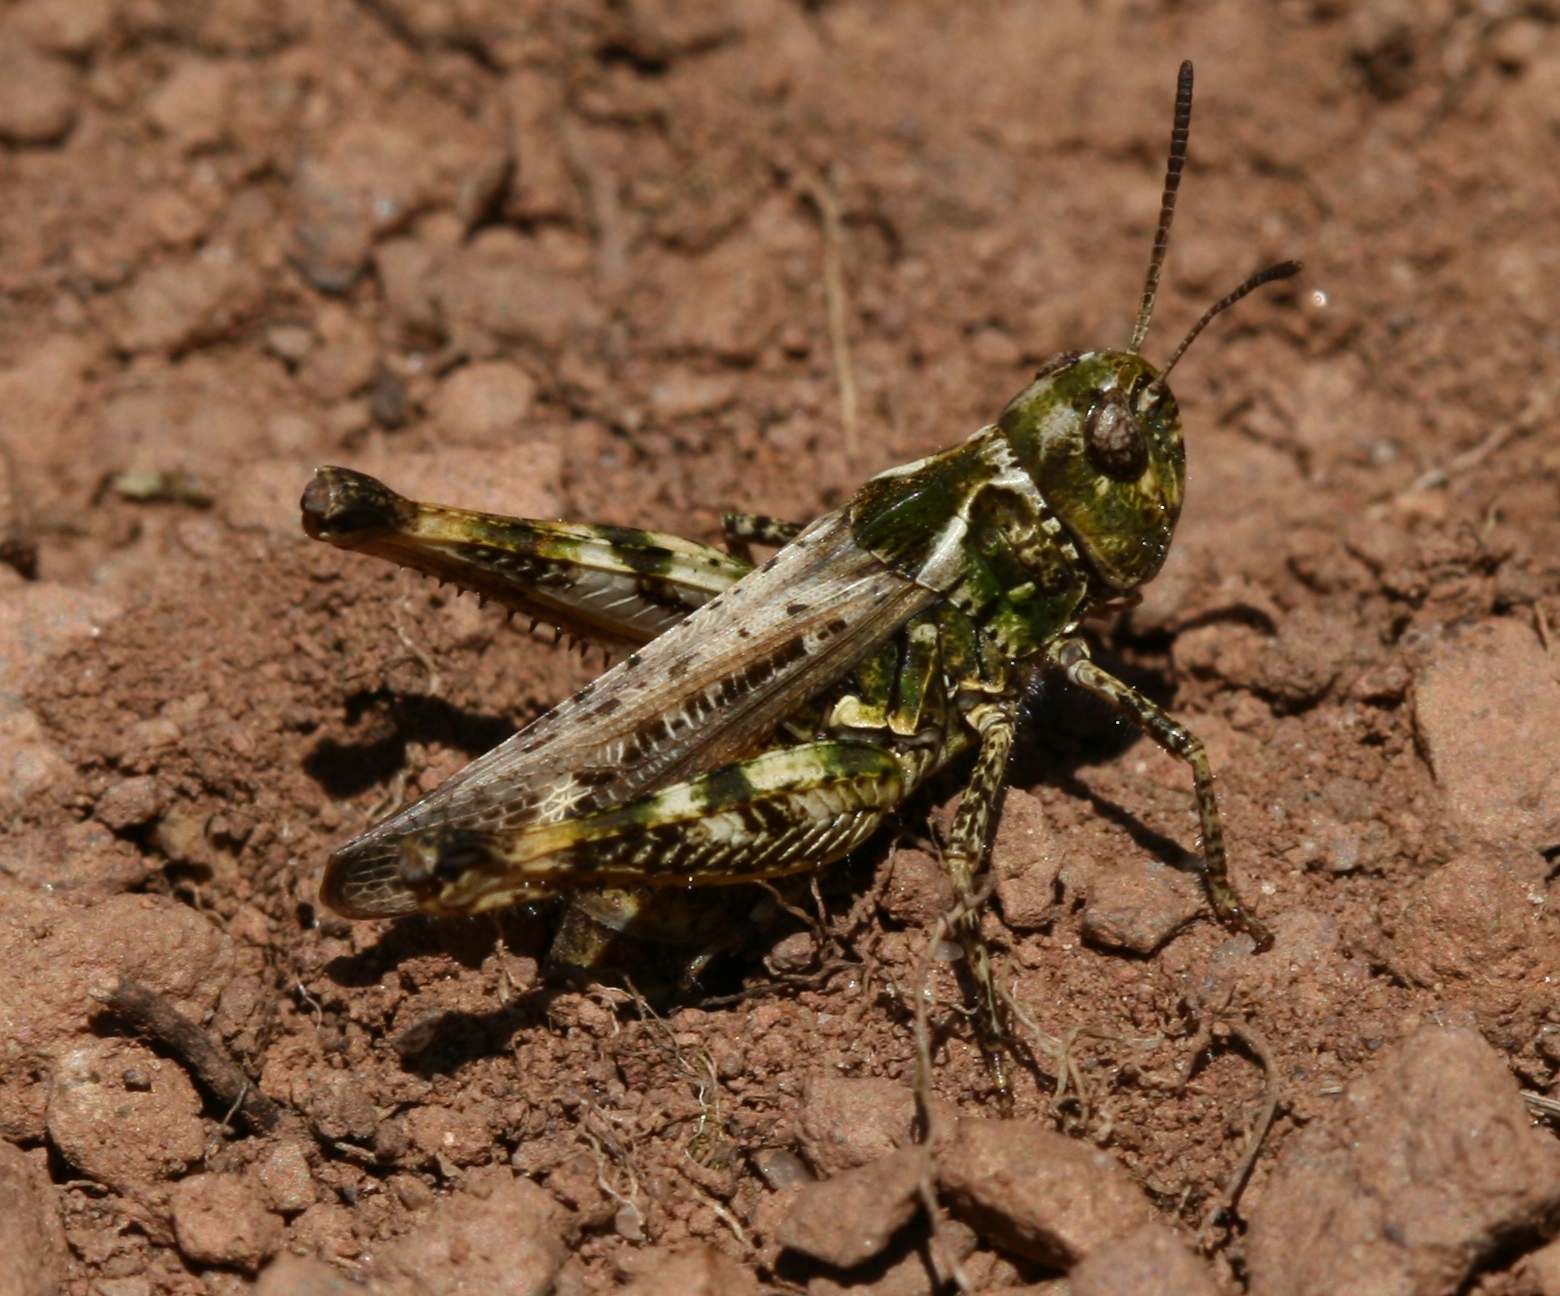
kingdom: Animalia
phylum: Arthropoda
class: Insecta
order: Orthoptera
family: Acrididae
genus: Myrmeleotettix
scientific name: Myrmeleotettix maculatus
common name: Mottled grasshopper
